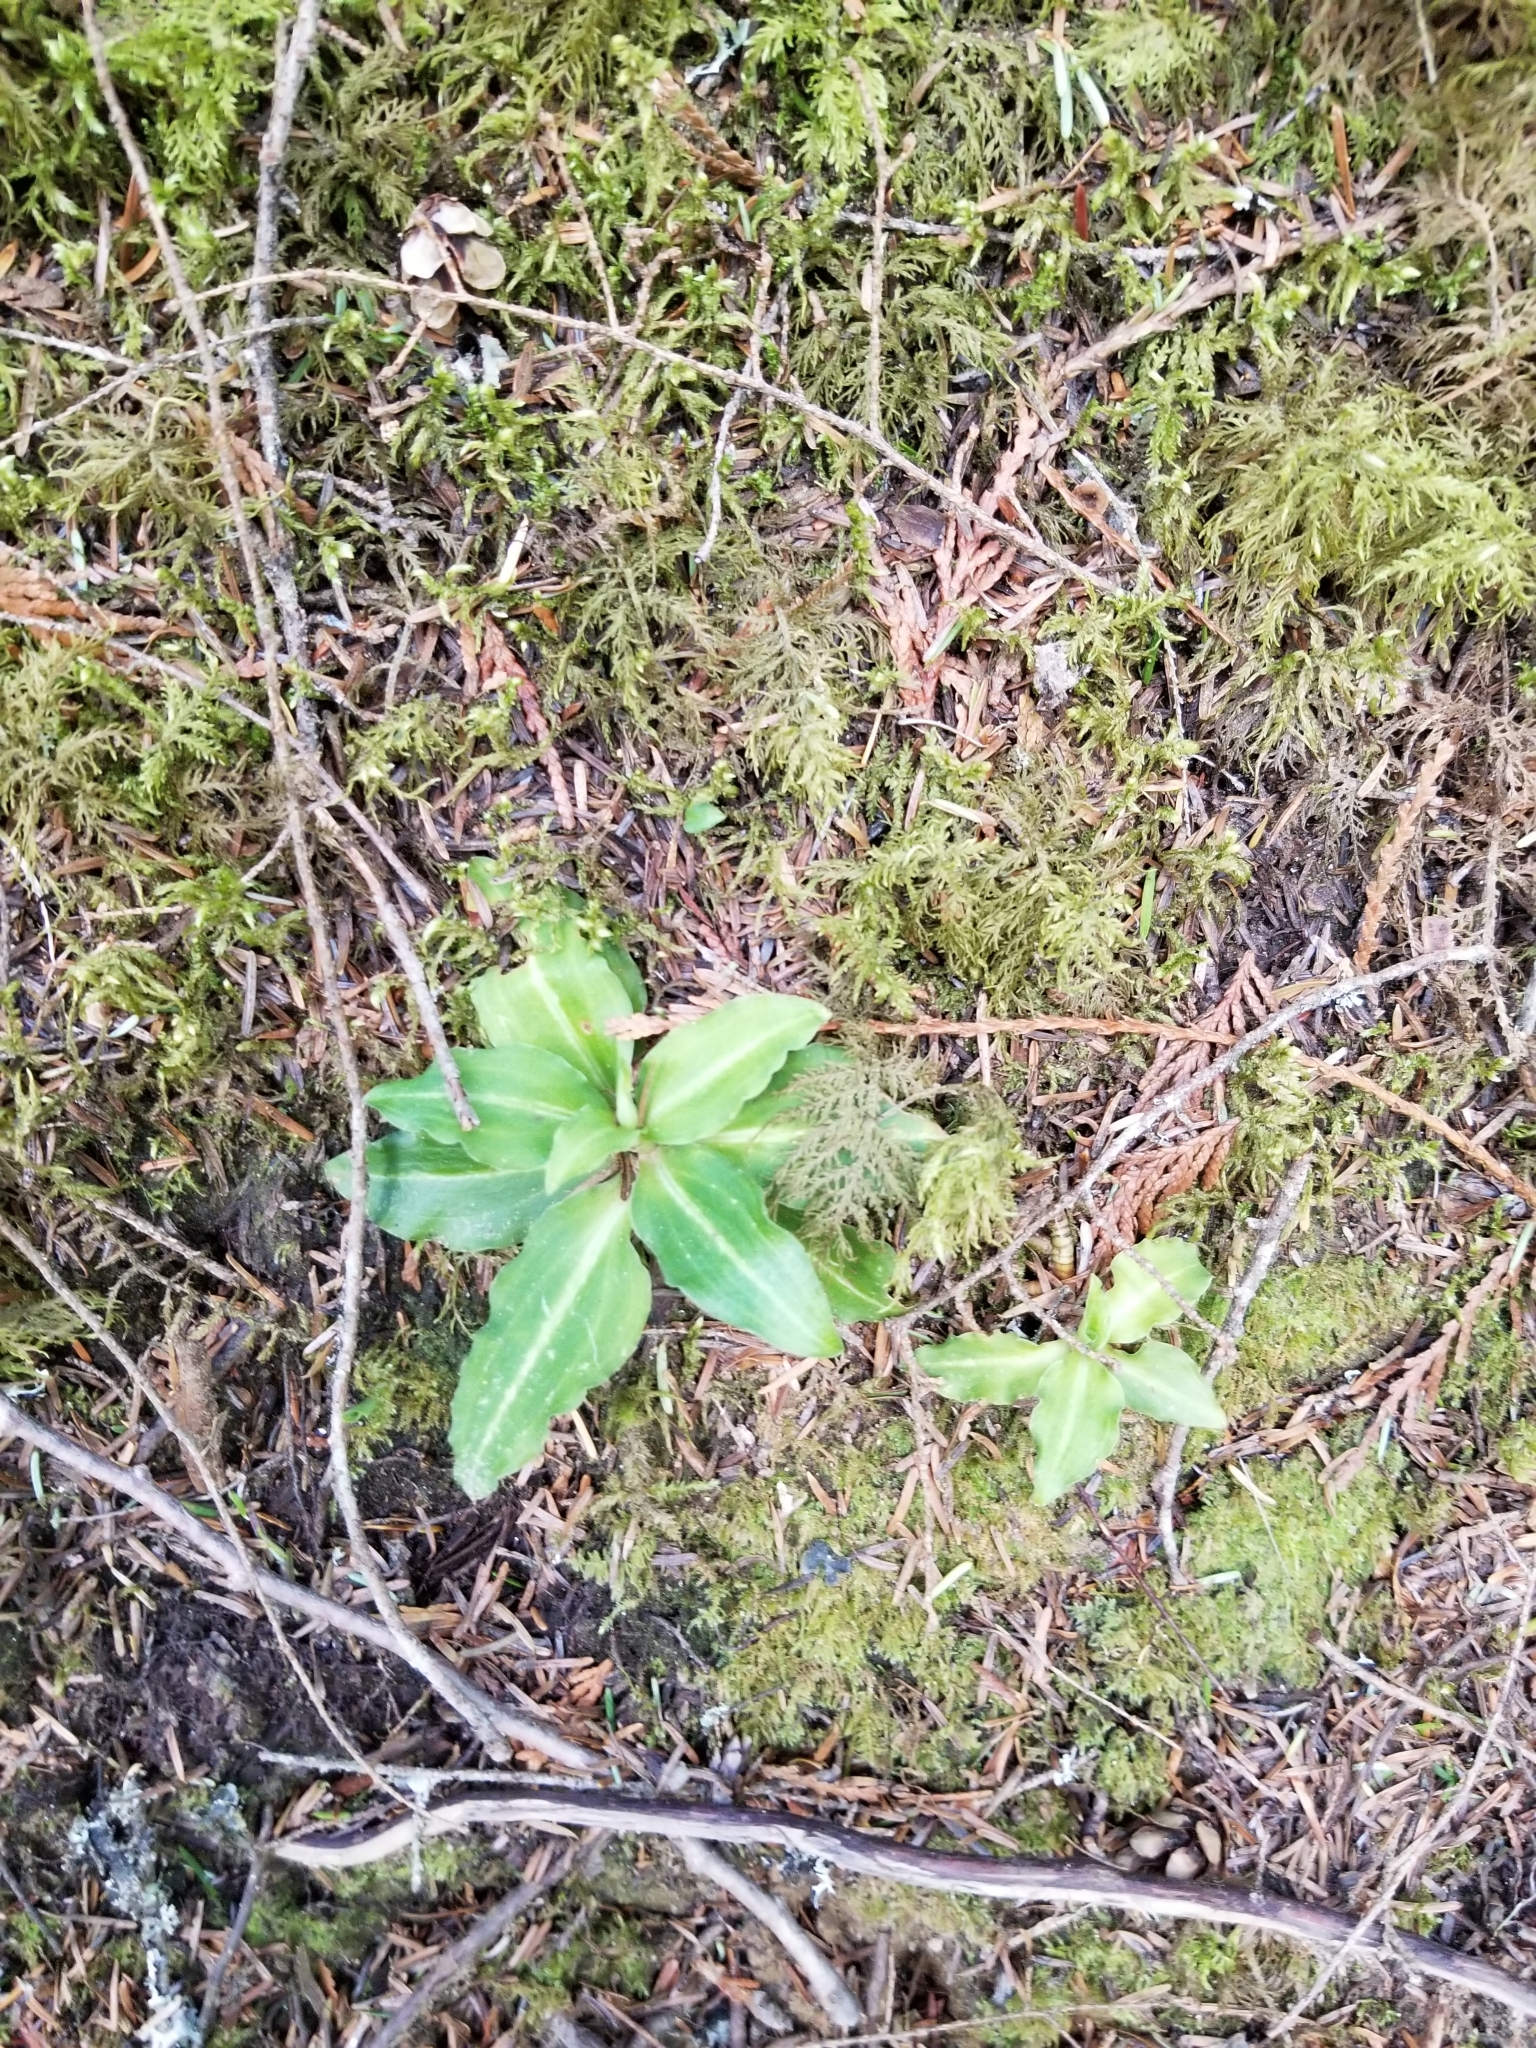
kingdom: Plantae
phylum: Tracheophyta
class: Liliopsida
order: Asparagales
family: Orchidaceae
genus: Goodyera
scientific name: Goodyera oblongifolia
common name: Giant rattlesnake-plantain
